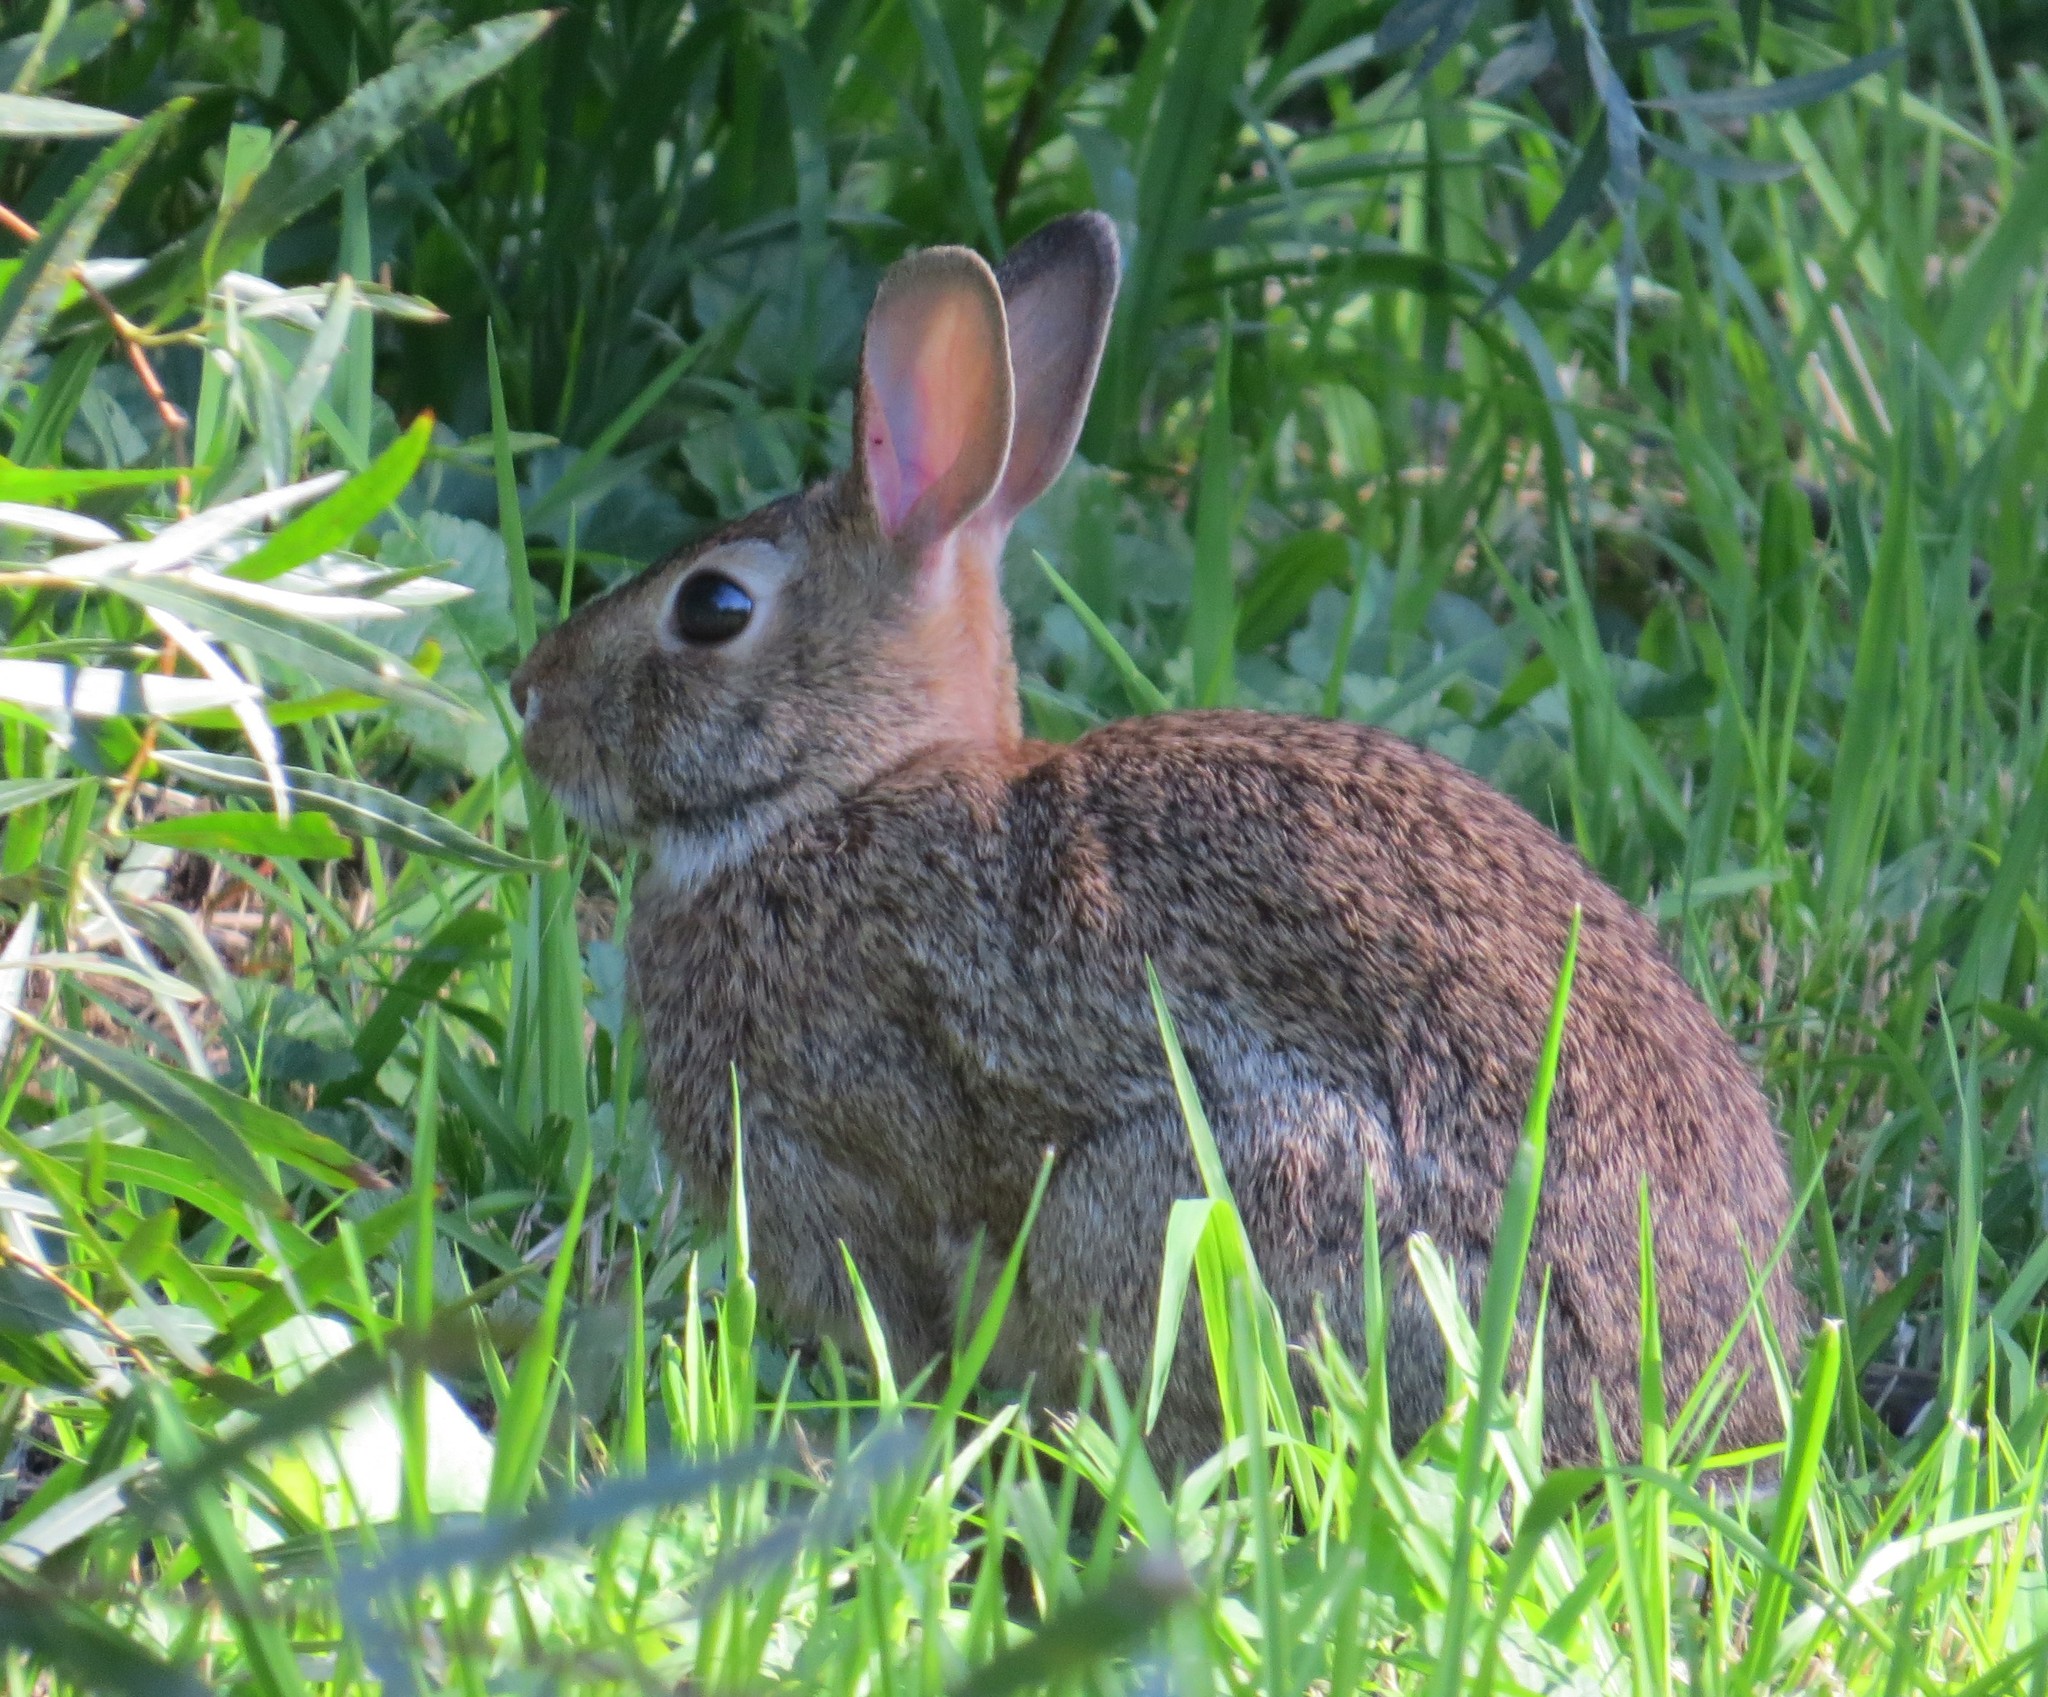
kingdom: Animalia
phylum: Chordata
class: Mammalia
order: Lagomorpha
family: Leporidae
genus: Sylvilagus
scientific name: Sylvilagus floridanus
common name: Eastern cottontail
